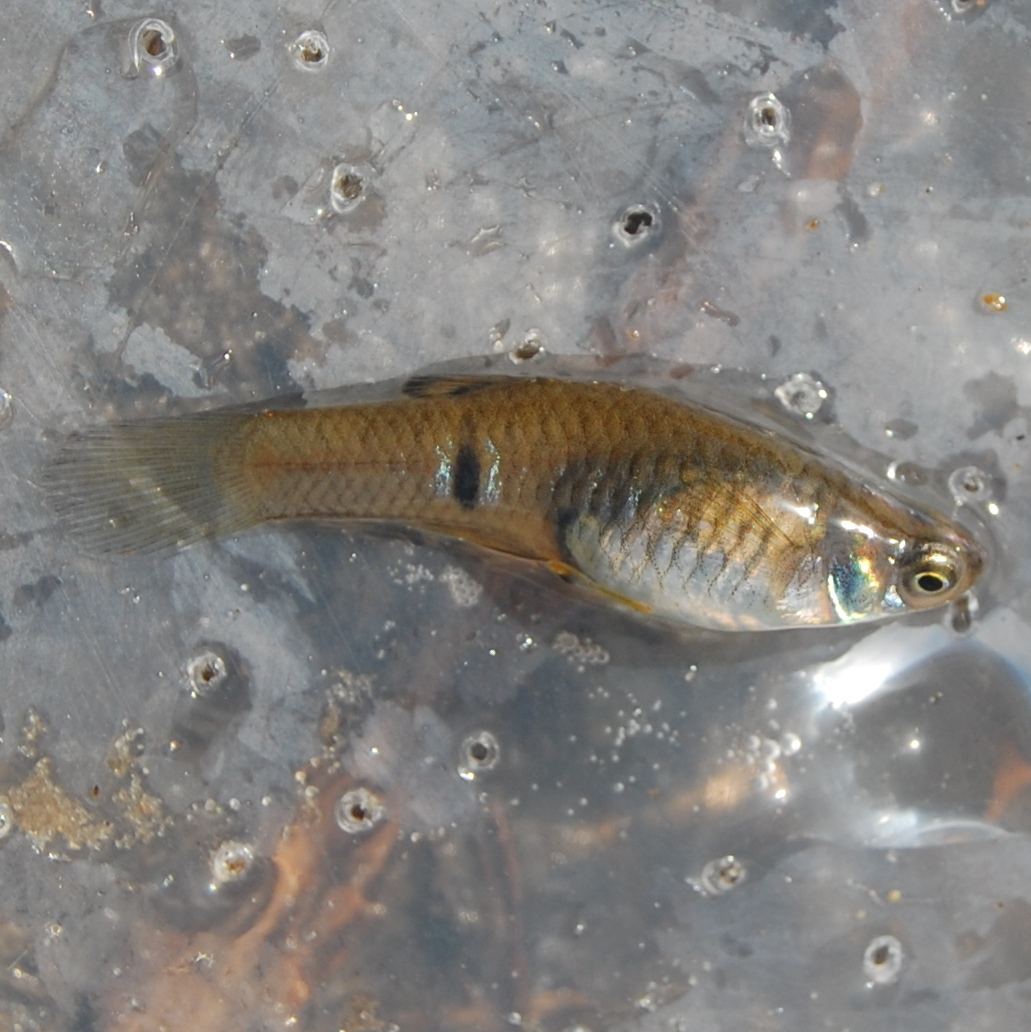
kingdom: Animalia
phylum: Chordata
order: Cyprinodontiformes
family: Poeciliidae
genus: Phalloceros
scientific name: Phalloceros caudimaculatus
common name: Dusky millions fish
